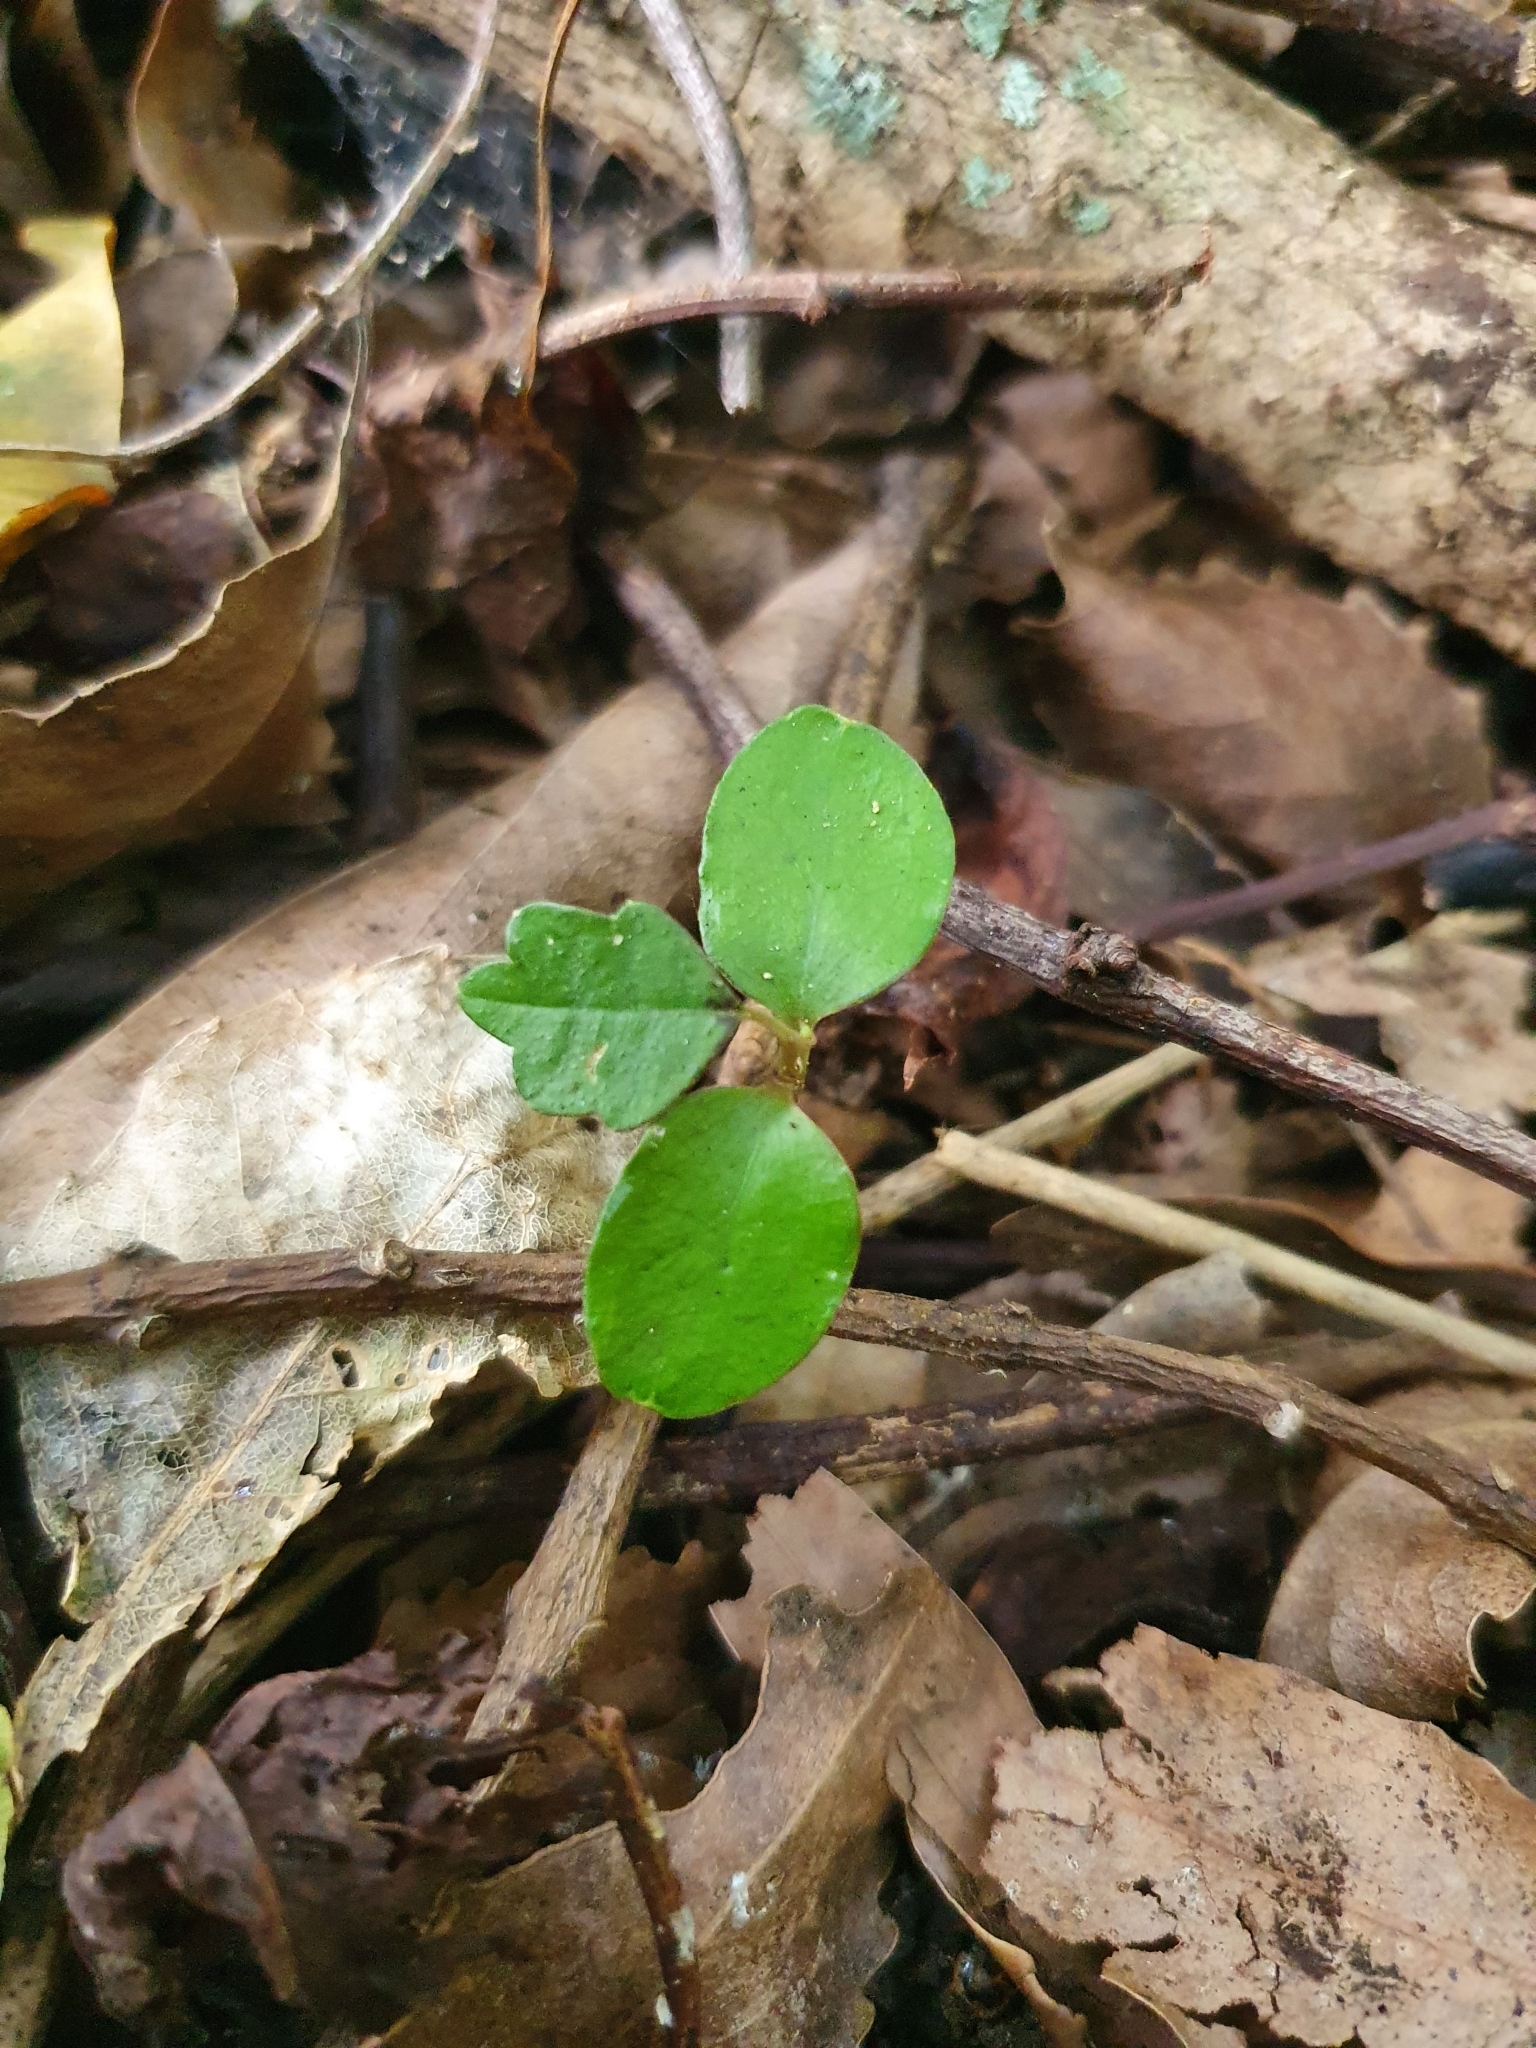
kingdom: Plantae
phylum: Tracheophyta
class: Magnoliopsida
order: Apiales
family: Pennantiaceae
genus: Pennantia
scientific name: Pennantia corymbosa
